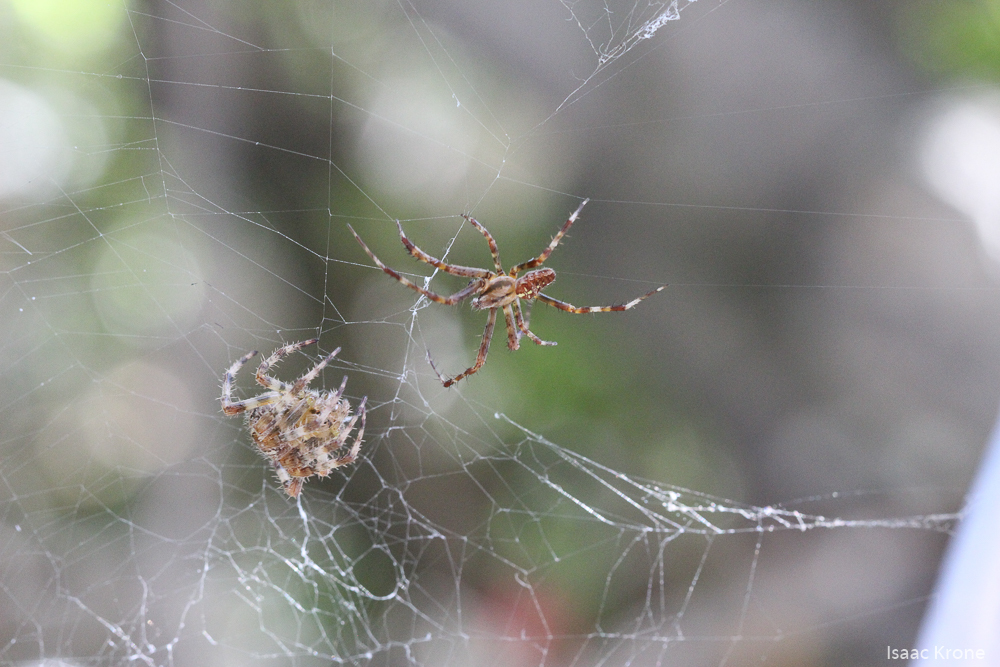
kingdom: Animalia
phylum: Arthropoda
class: Arachnida
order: Araneae
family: Araneidae
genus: Araneus
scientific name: Araneus diadematus
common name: Cross orbweaver
